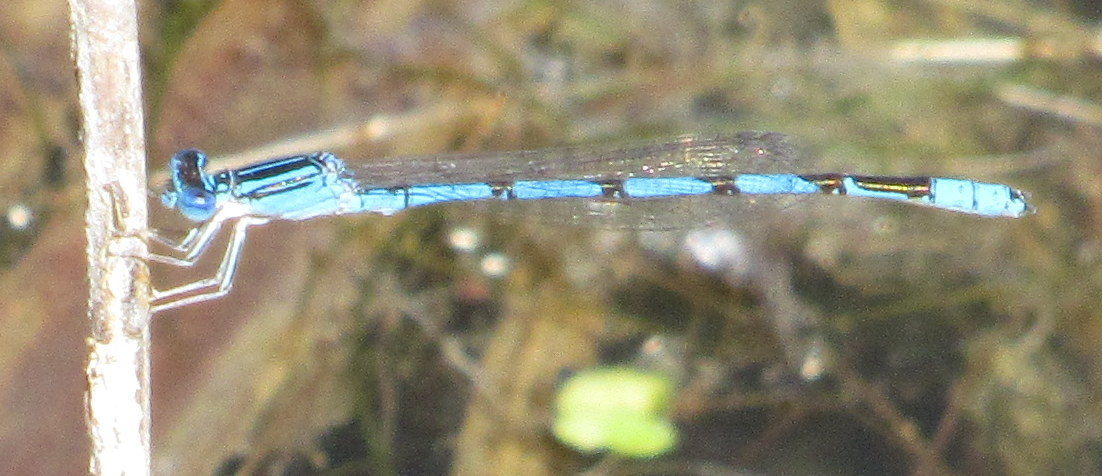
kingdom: Animalia
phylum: Arthropoda
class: Insecta
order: Odonata
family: Coenagrionidae
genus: Enallagma
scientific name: Enallagma basidens
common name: Double-striped bluet
